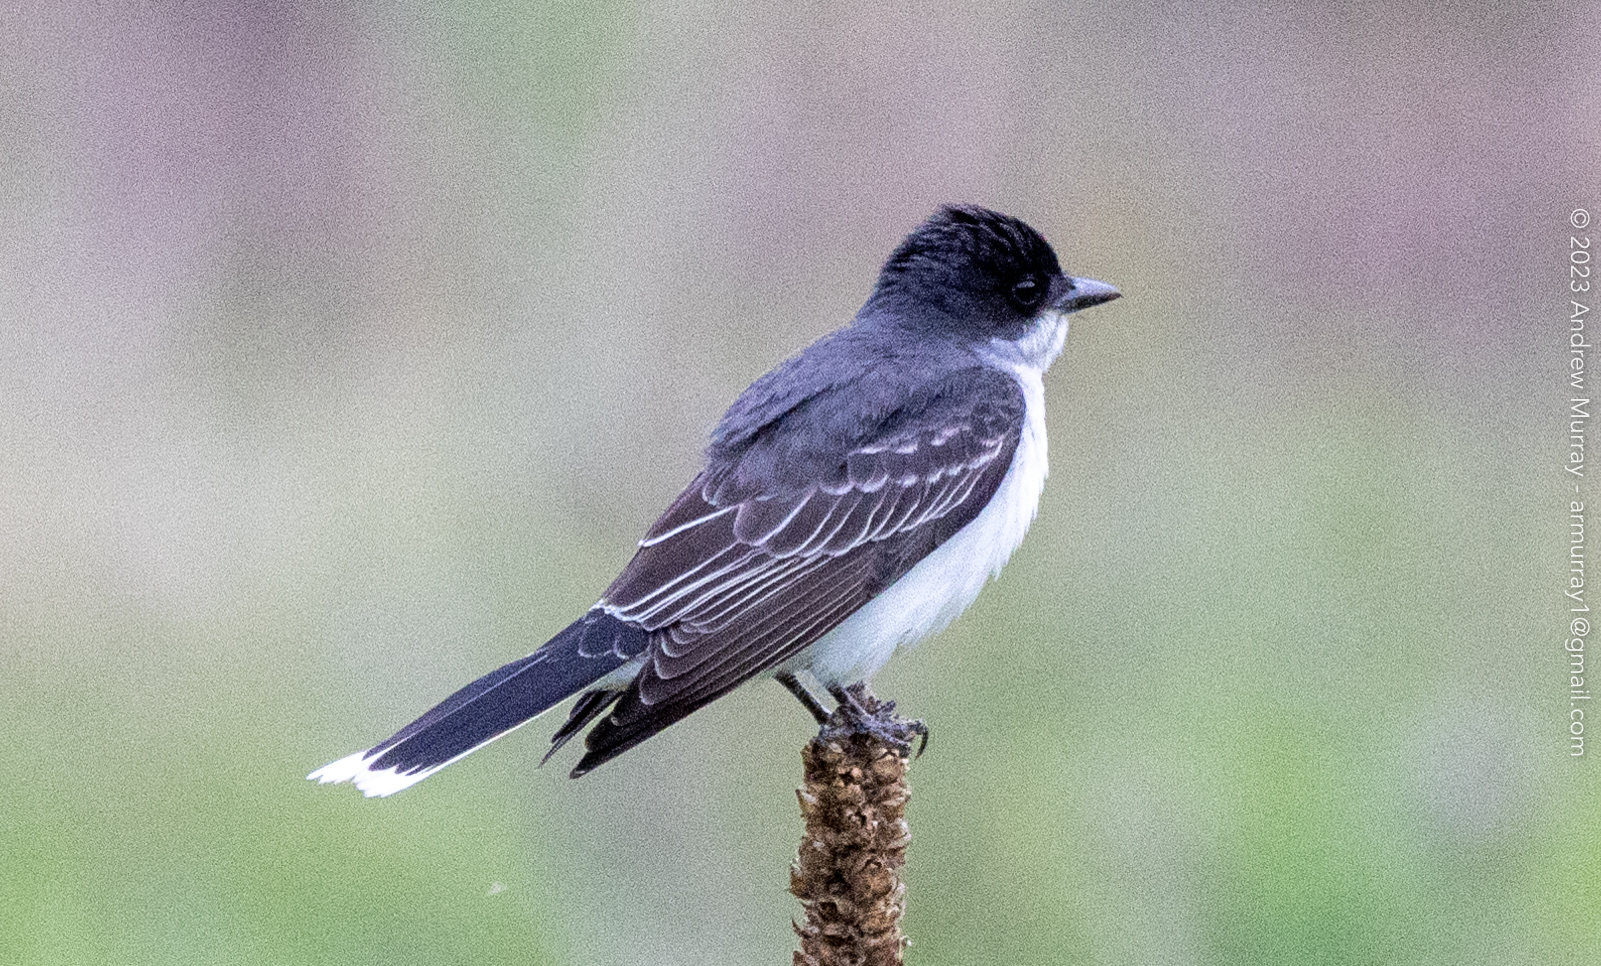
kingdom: Animalia
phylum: Chordata
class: Aves
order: Passeriformes
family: Tyrannidae
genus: Tyrannus
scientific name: Tyrannus tyrannus
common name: Eastern kingbird
